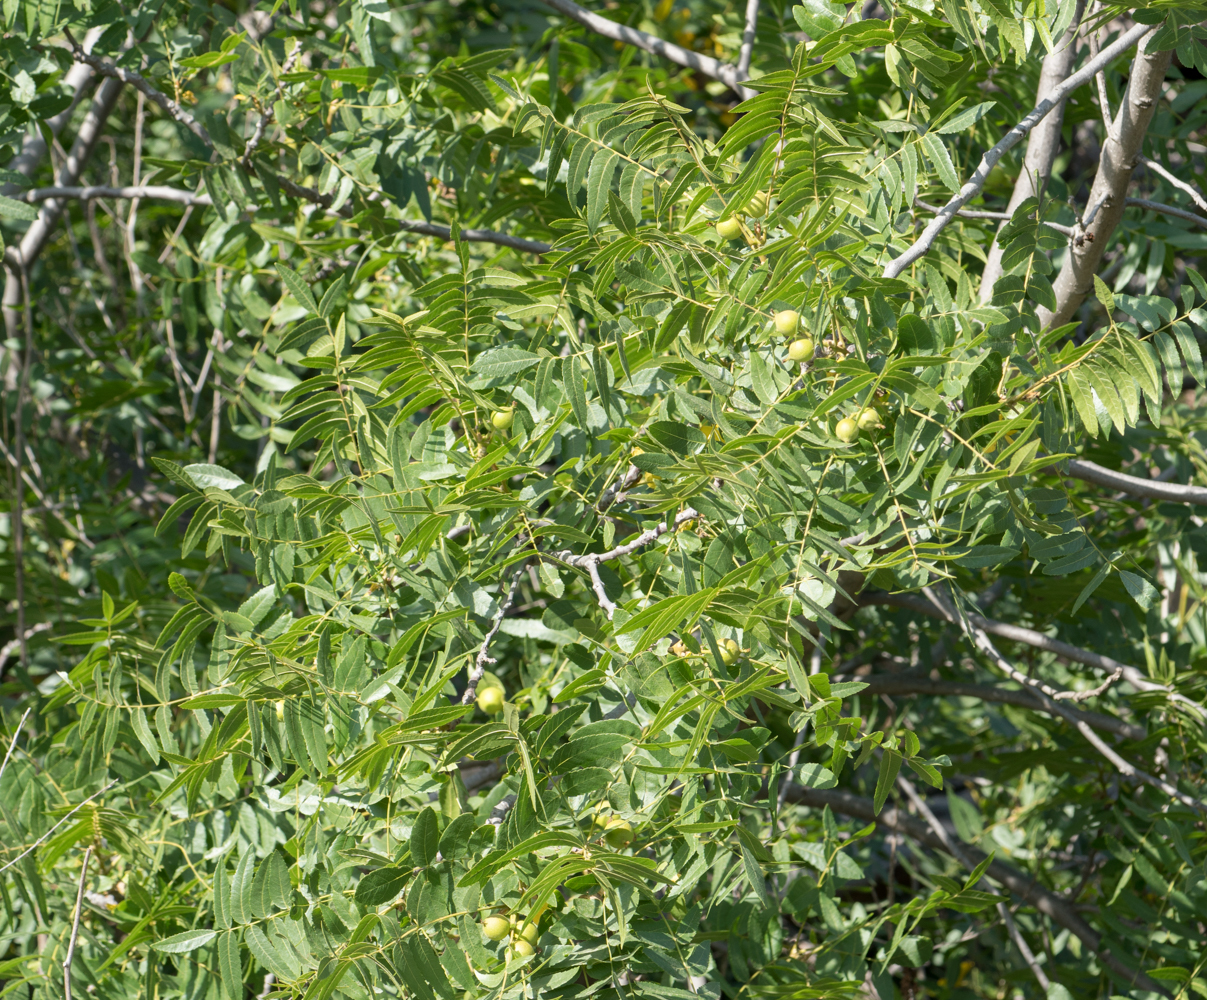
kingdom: Plantae
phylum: Tracheophyta
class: Magnoliopsida
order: Fagales
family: Juglandaceae
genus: Juglans
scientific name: Juglans californica
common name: Southern california black walnut
